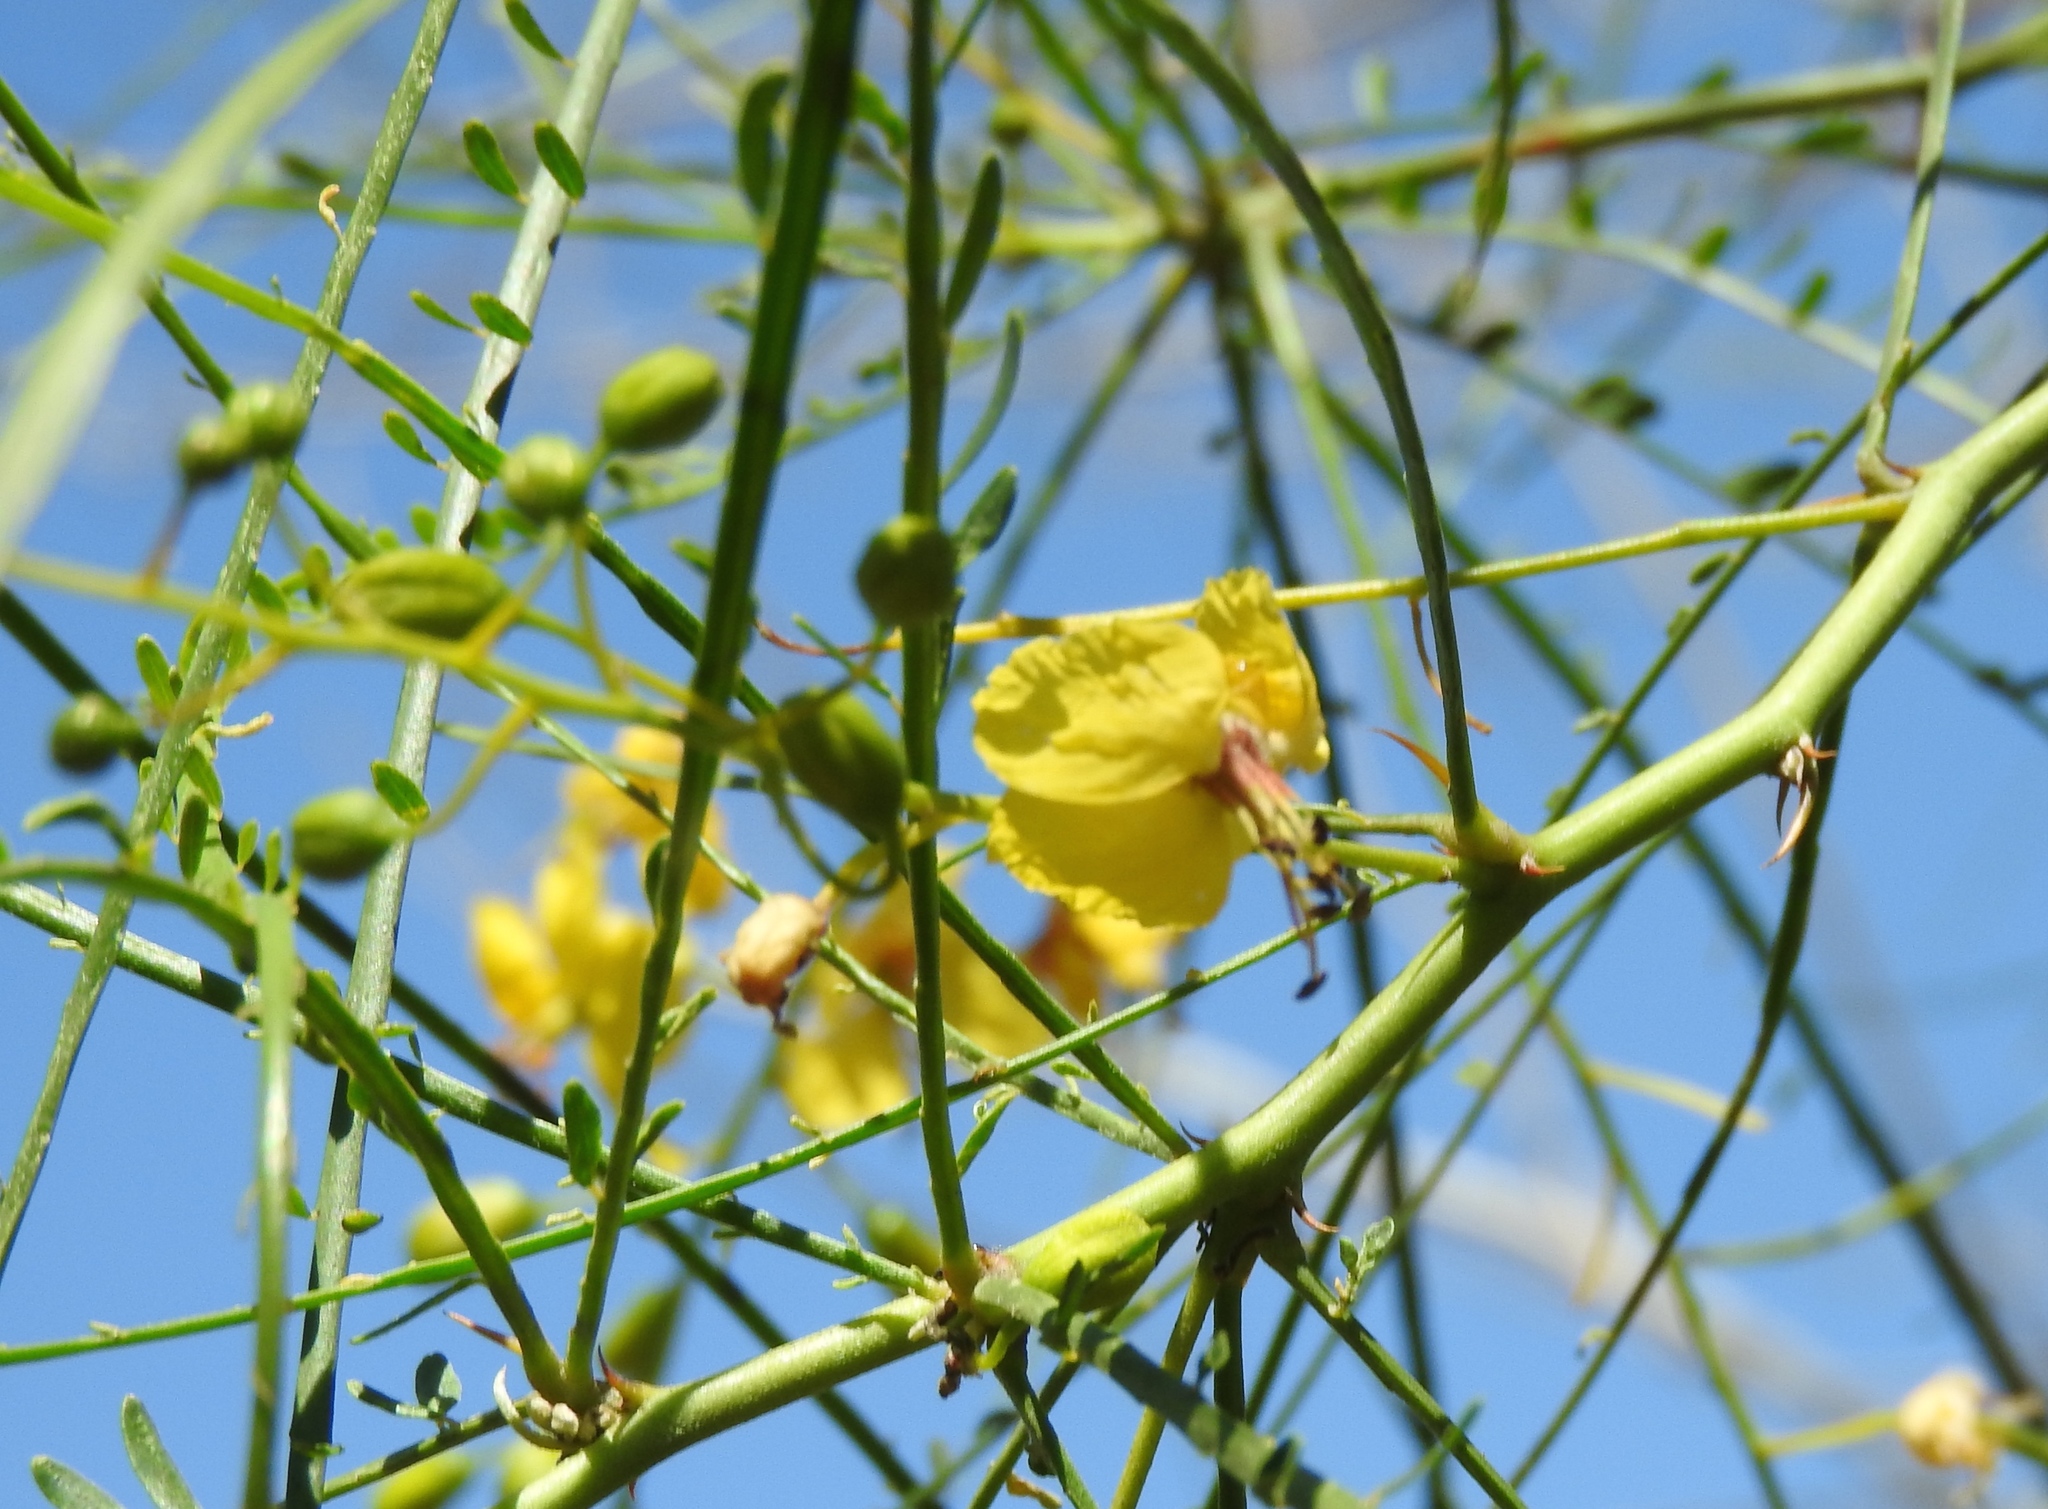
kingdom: Plantae
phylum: Tracheophyta
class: Magnoliopsida
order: Fabales
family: Fabaceae
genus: Parkinsonia
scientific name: Parkinsonia aculeata
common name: Jerusalem thorn
